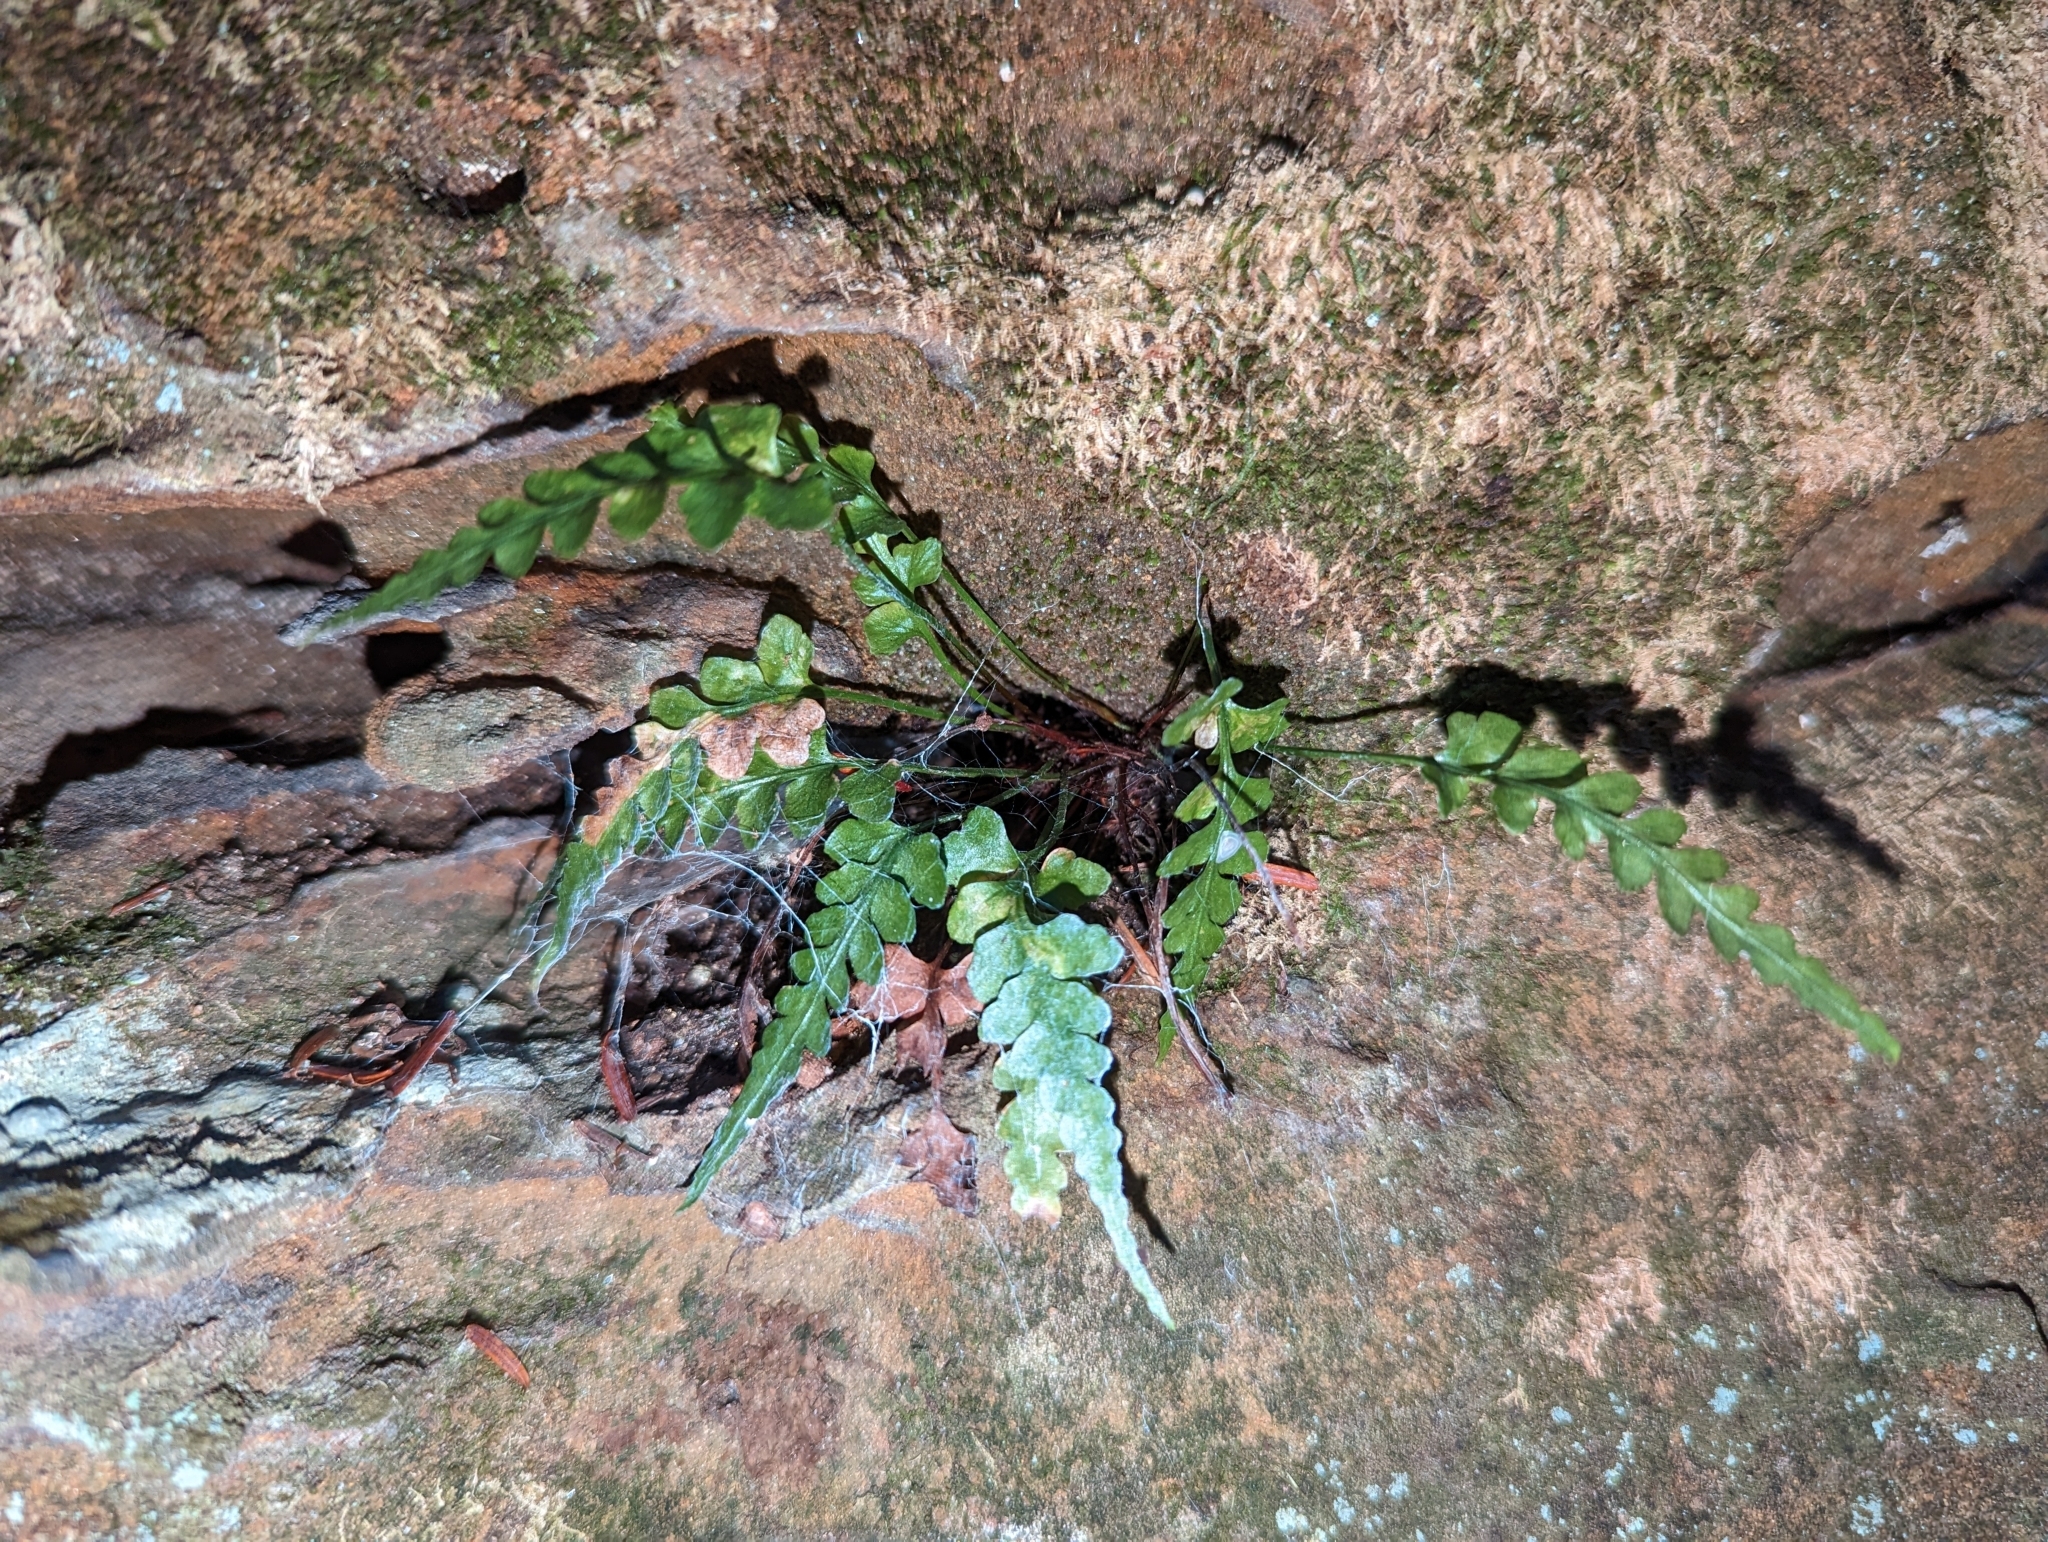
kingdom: Plantae
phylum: Tracheophyta
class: Polypodiopsida
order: Polypodiales
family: Aspleniaceae
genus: Asplenium
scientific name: Asplenium pinnatifidum
